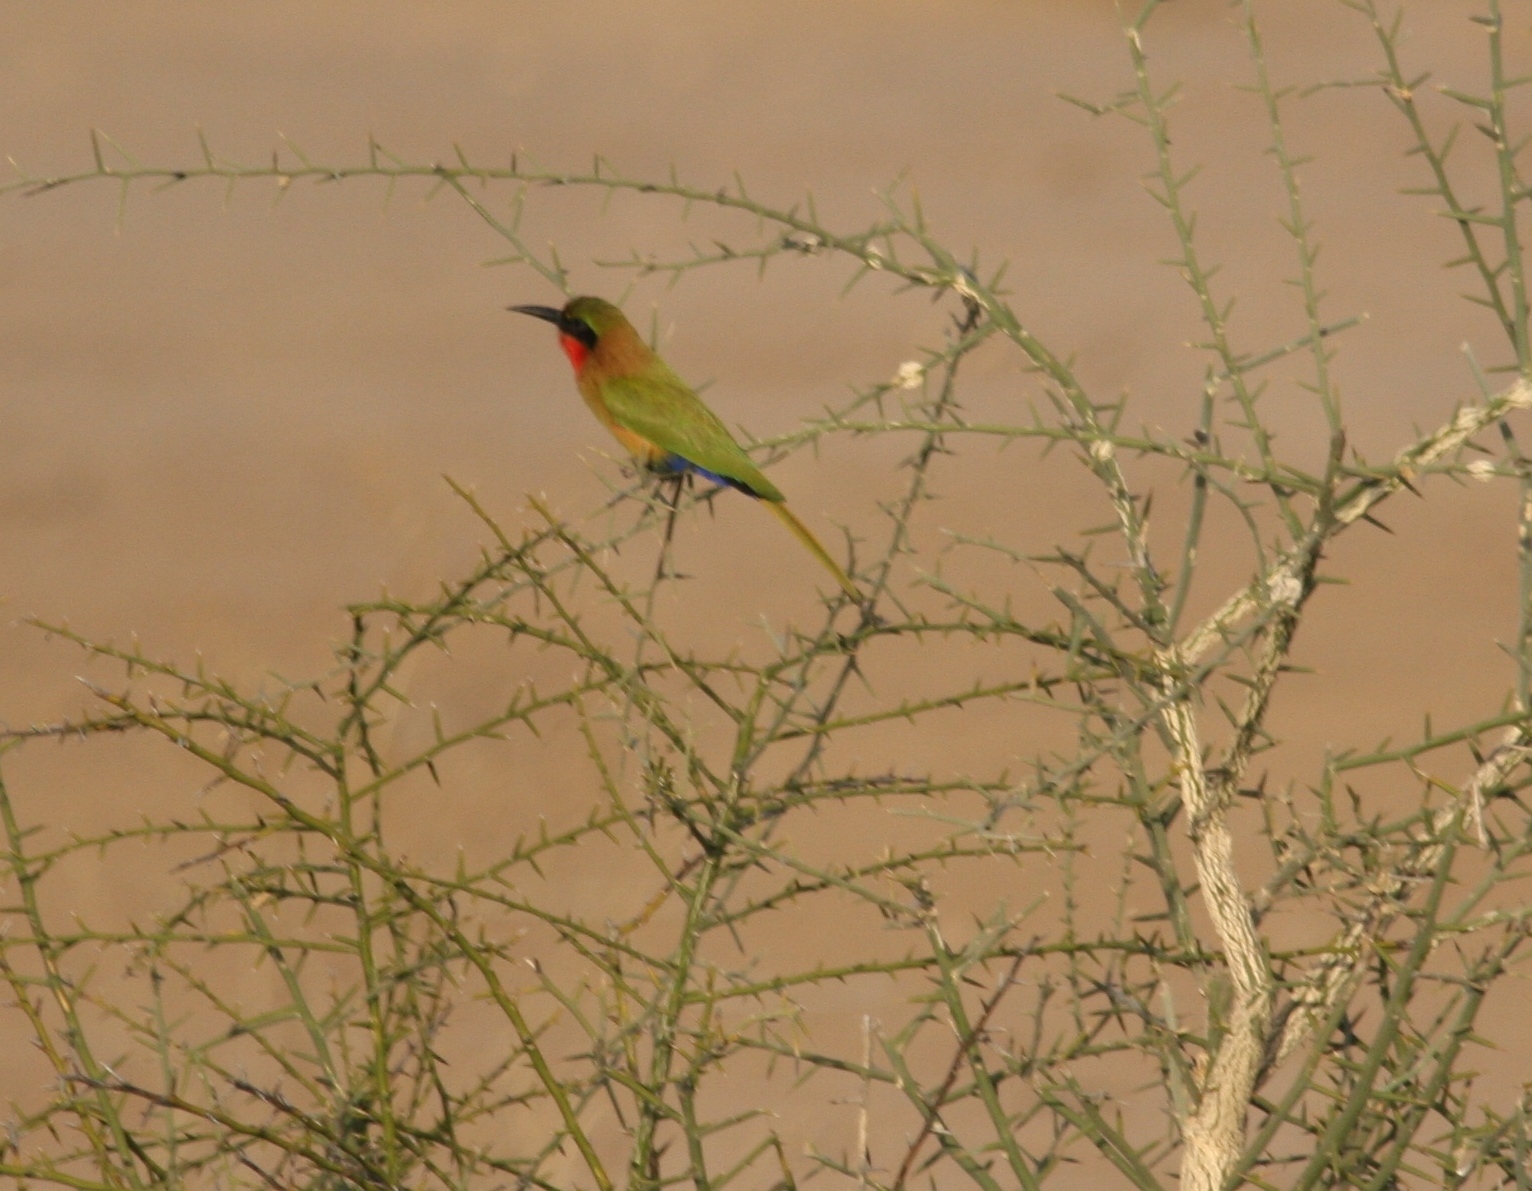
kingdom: Animalia
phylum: Chordata
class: Aves
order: Coraciiformes
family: Meropidae
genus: Merops
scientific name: Merops bulocki
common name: Red-throated bee-eater
